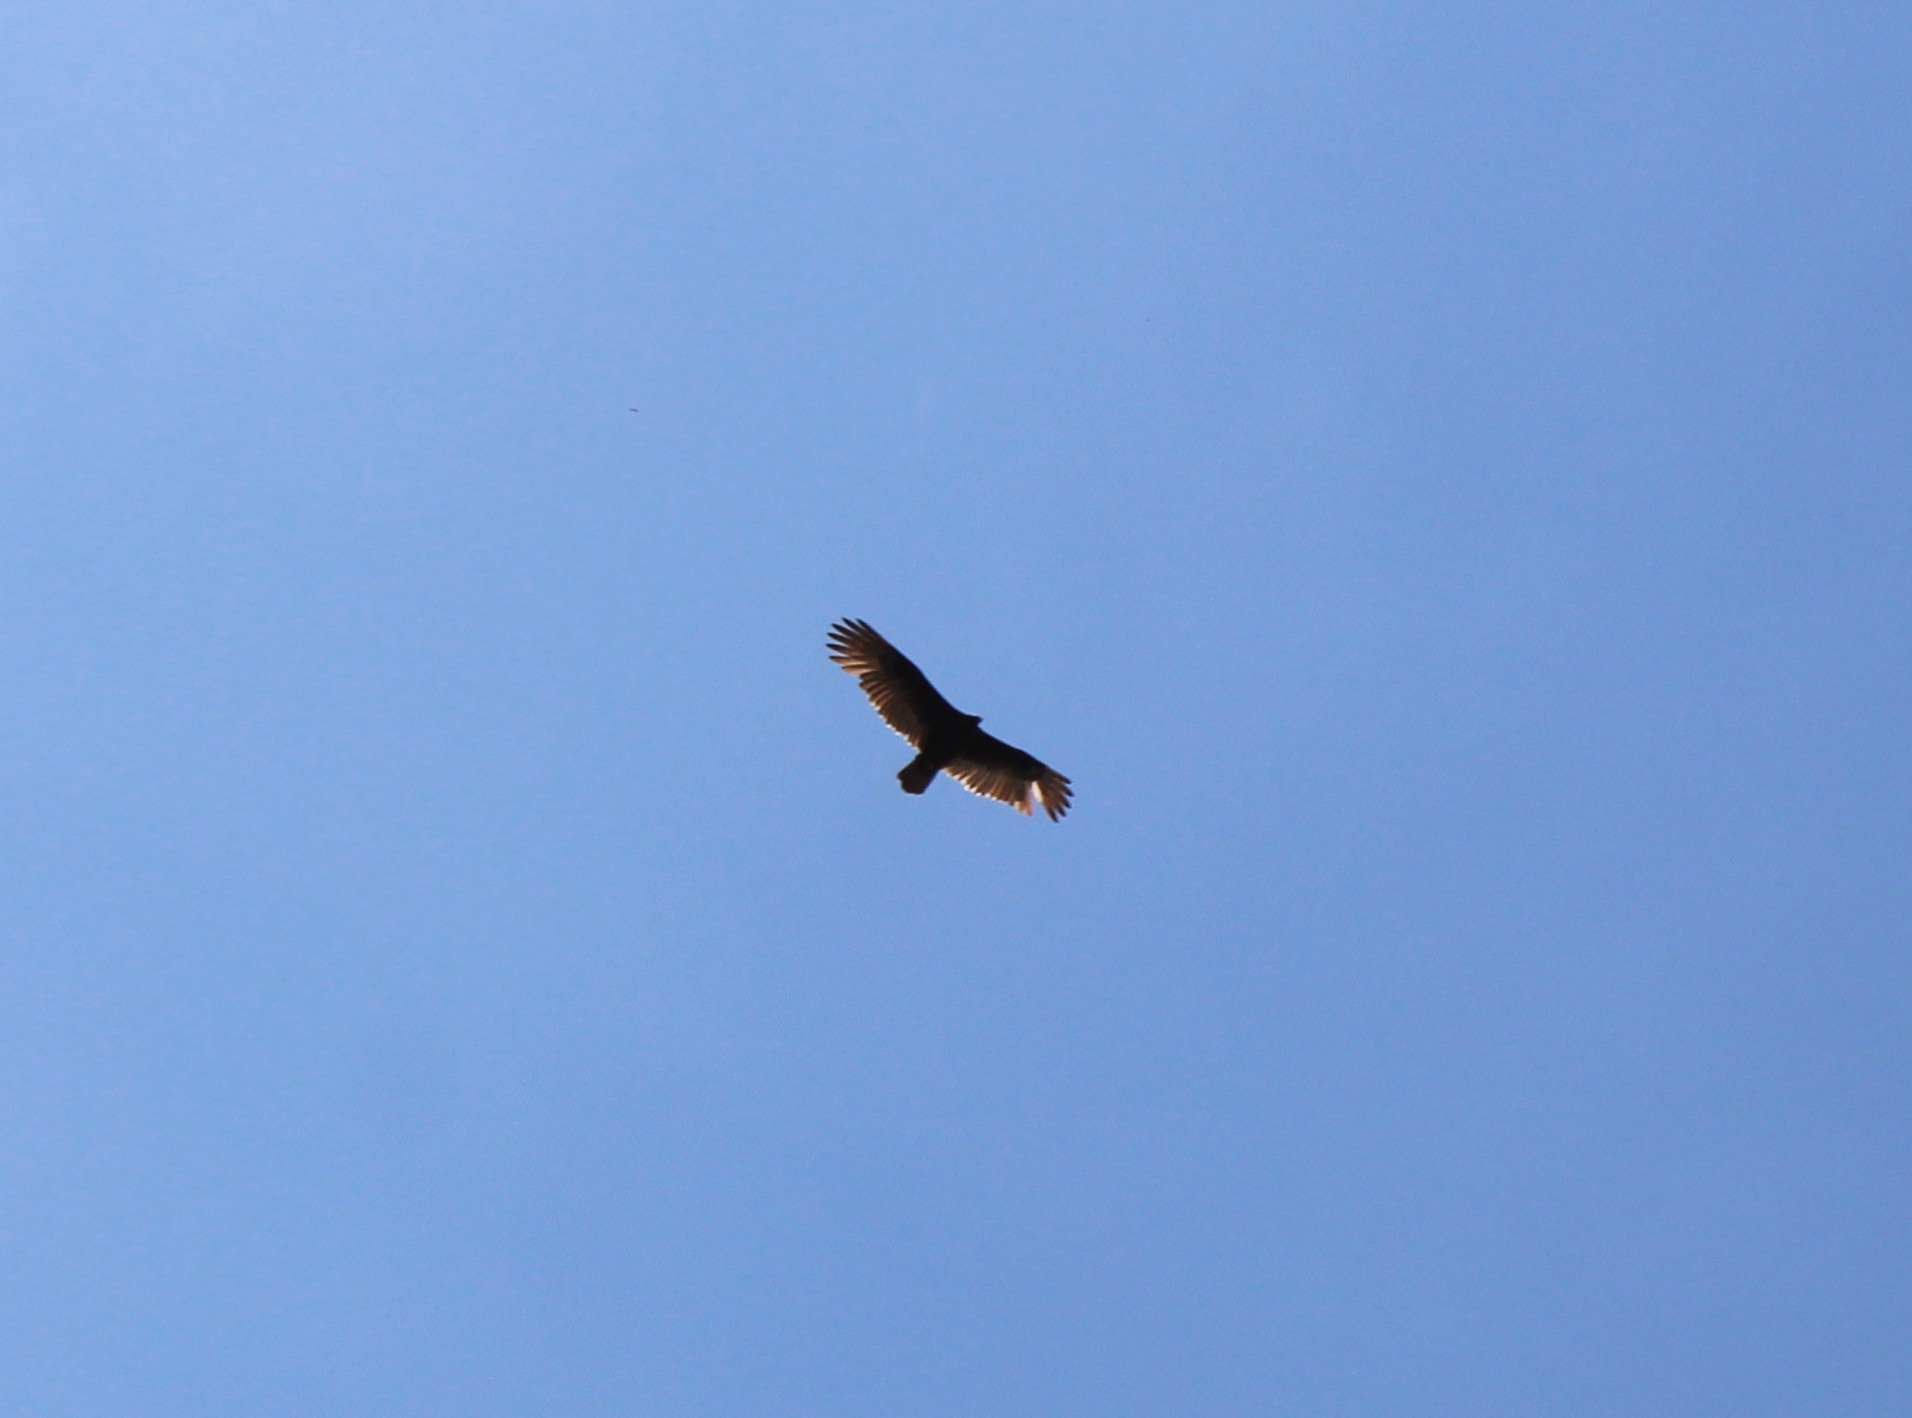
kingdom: Animalia
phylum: Chordata
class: Aves
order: Accipitriformes
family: Cathartidae
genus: Cathartes
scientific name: Cathartes aura
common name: Turkey vulture
